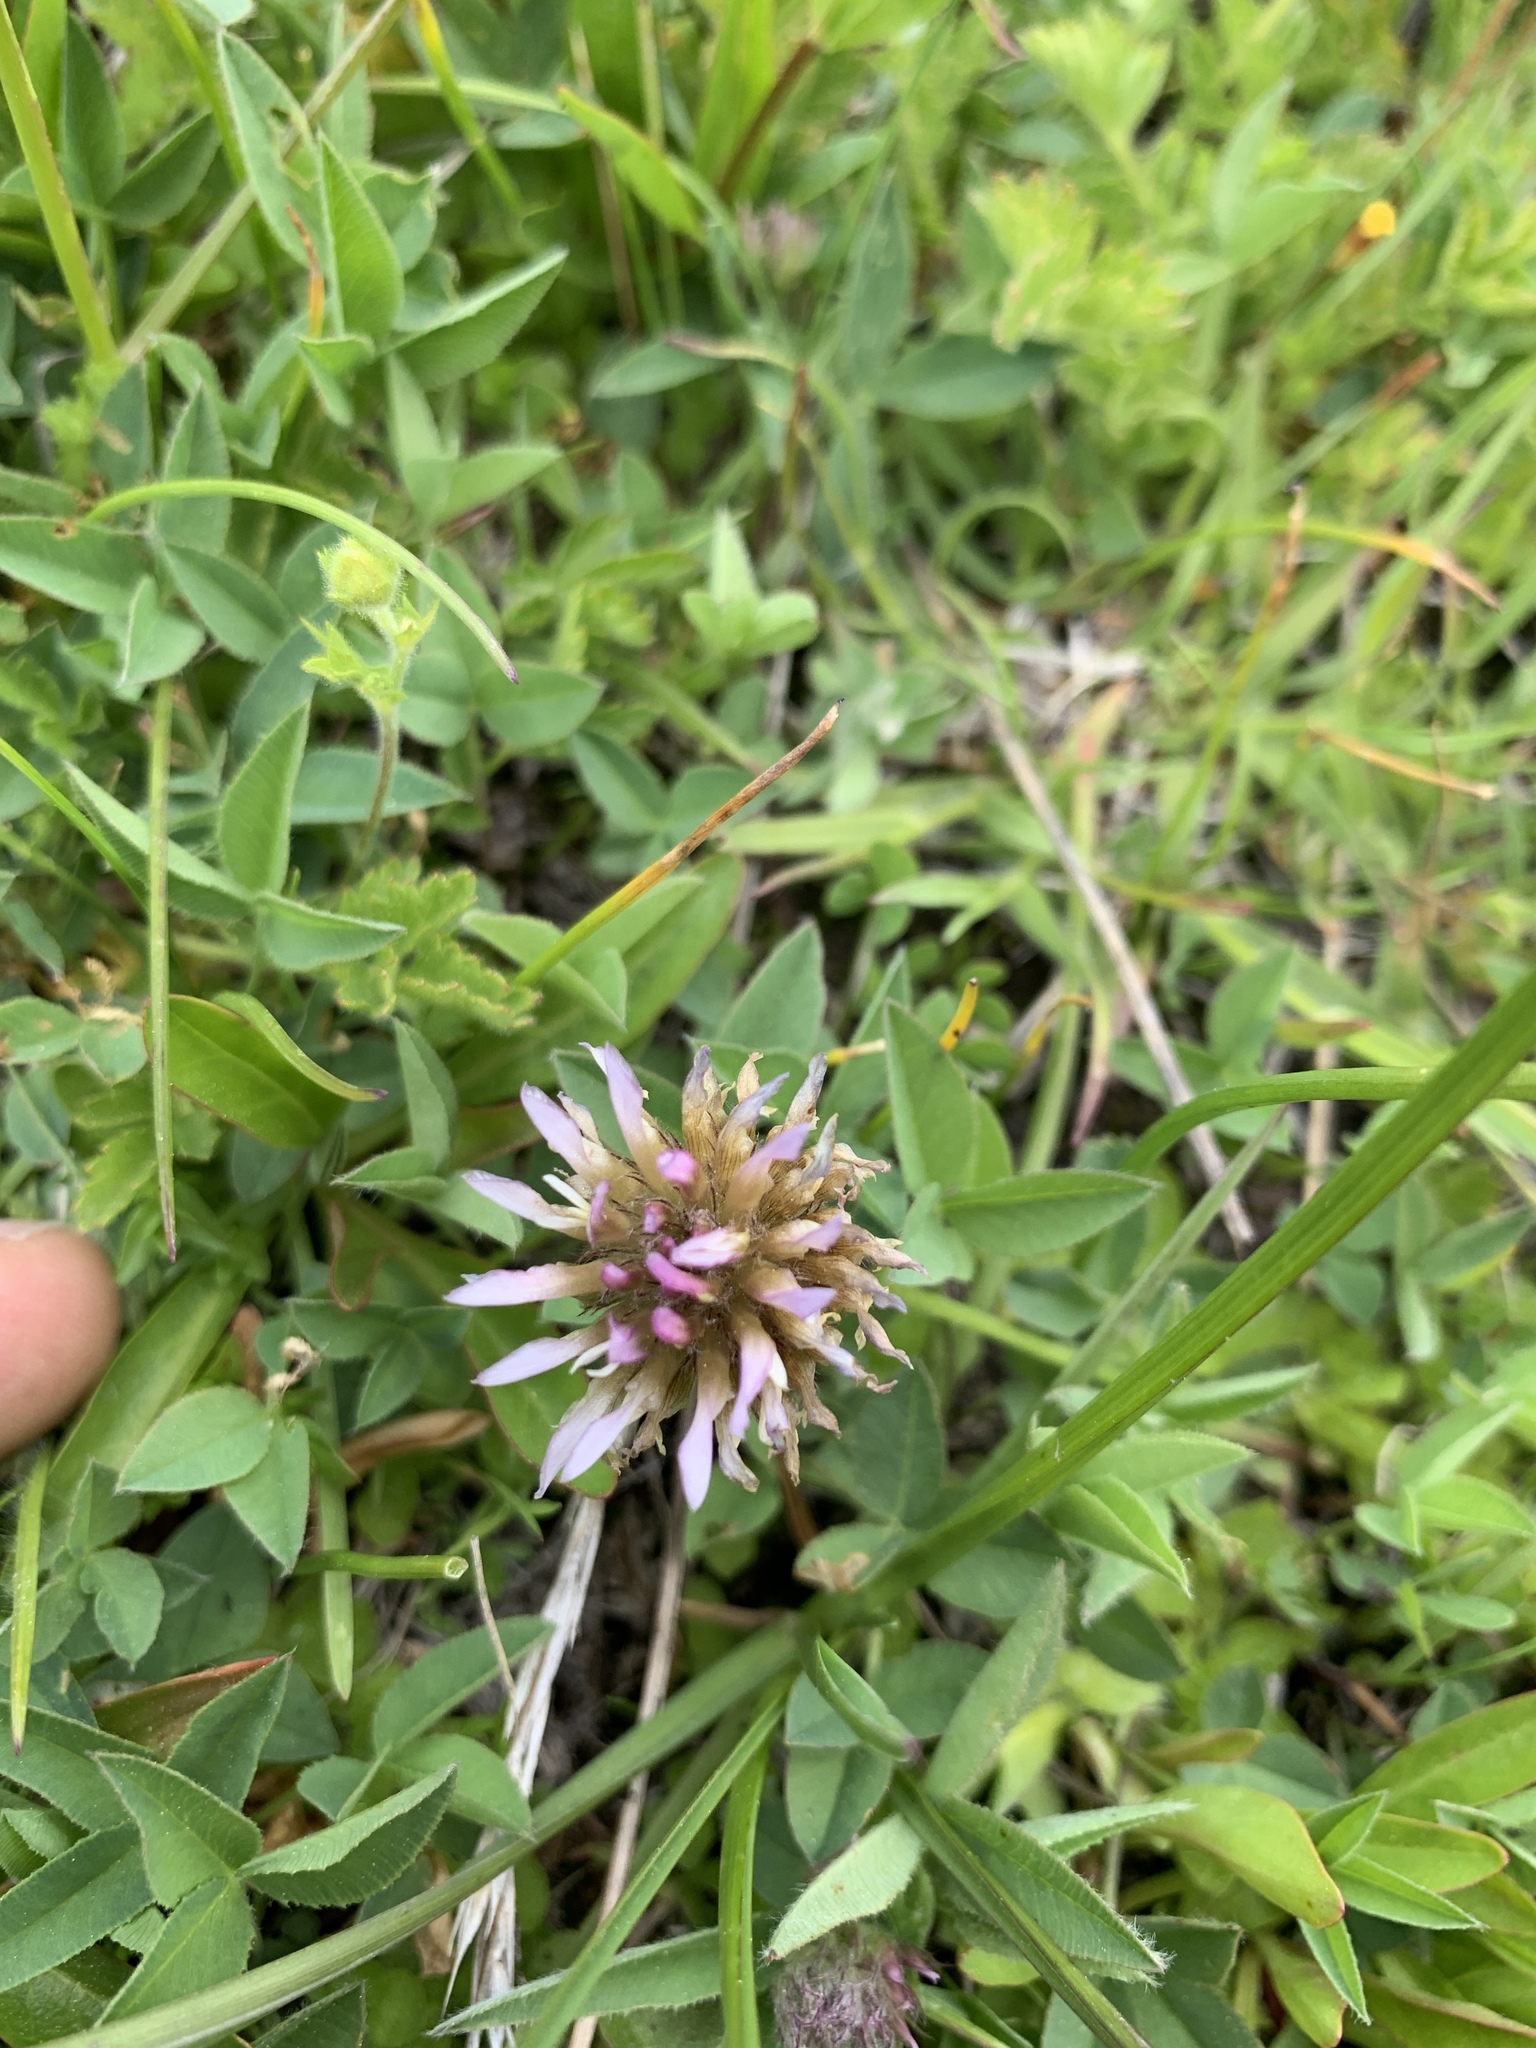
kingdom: Plantae
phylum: Tracheophyta
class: Magnoliopsida
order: Fabales
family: Fabaceae
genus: Trifolium
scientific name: Trifolium longipes
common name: Long-stalk clover
